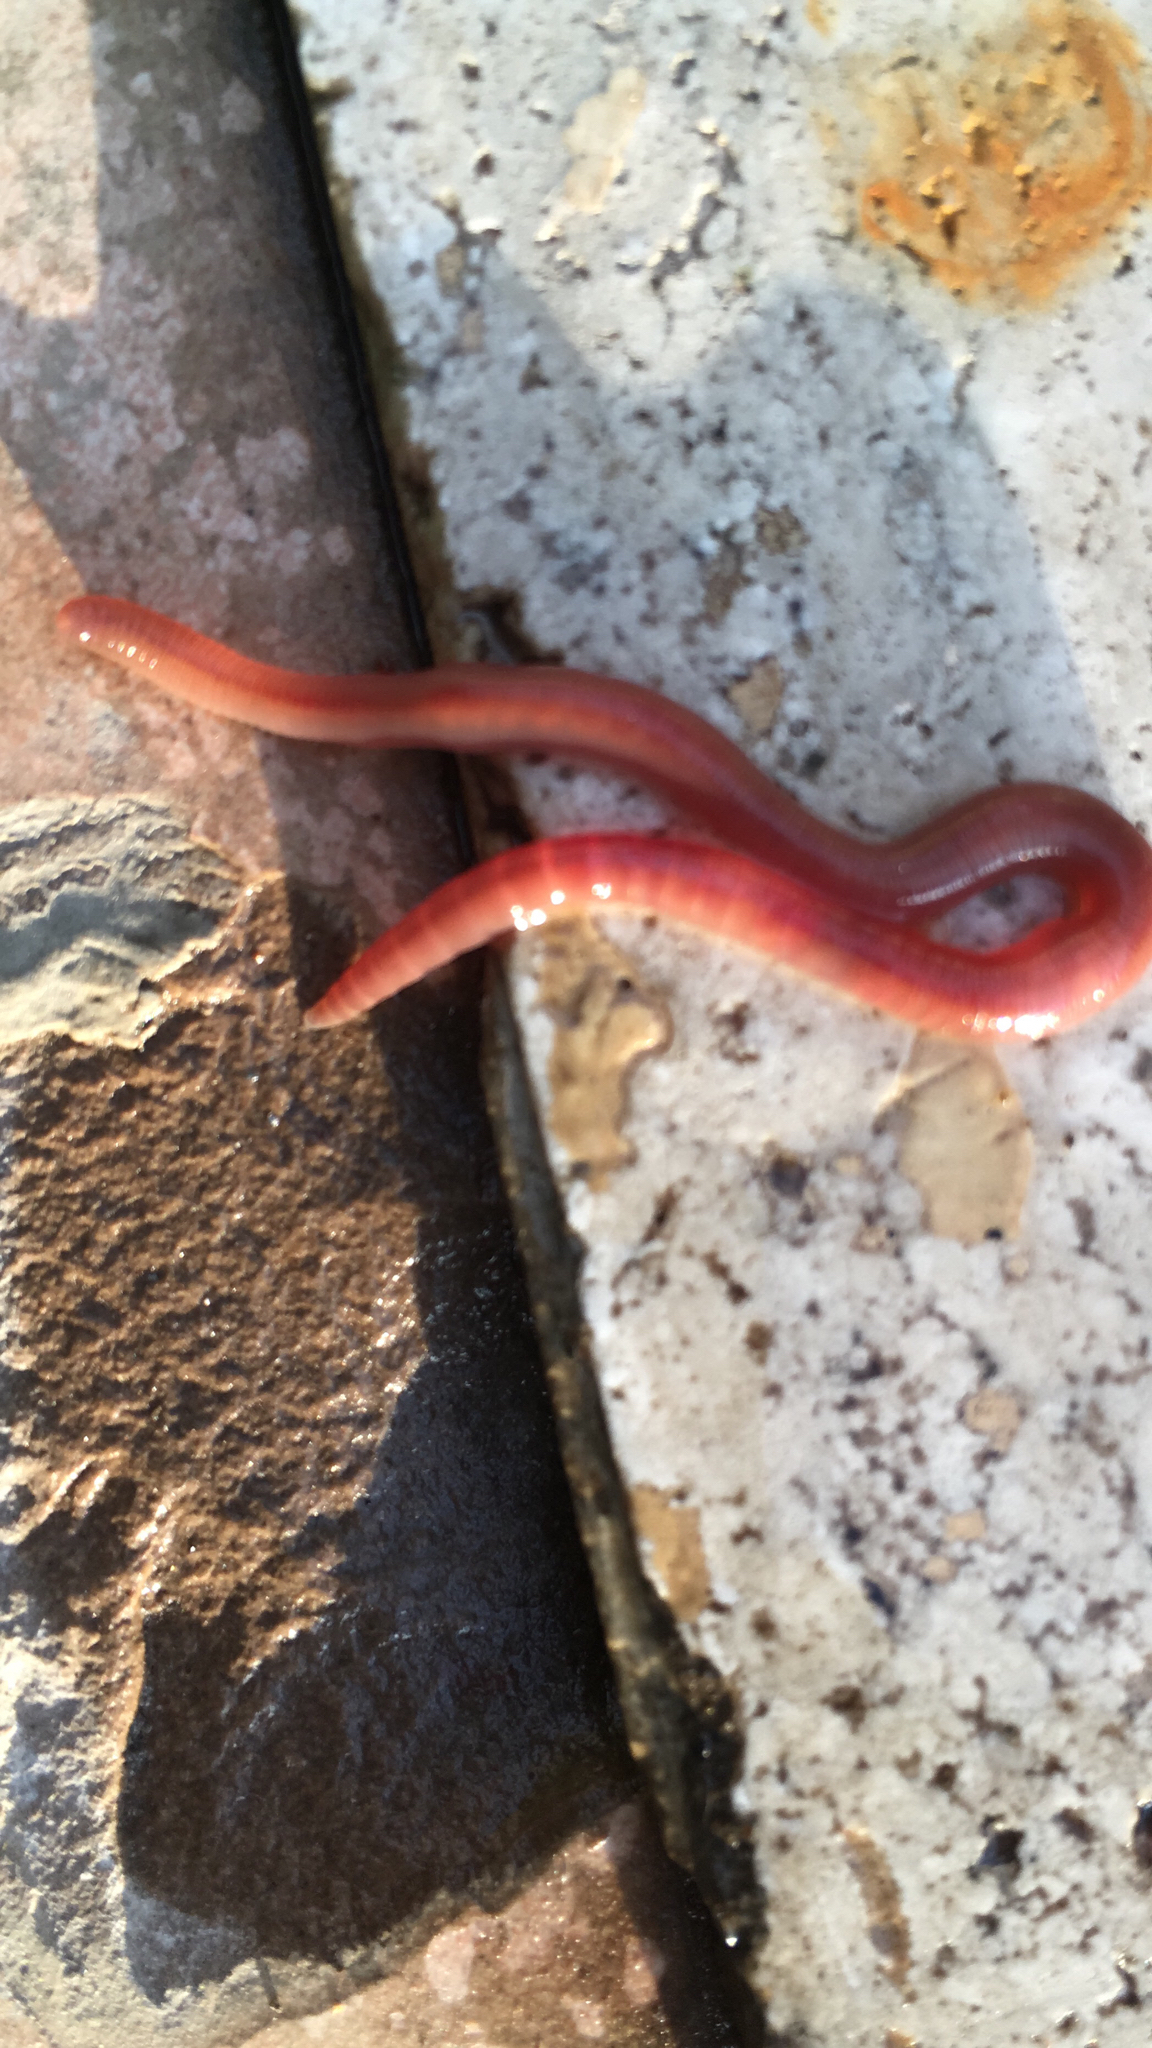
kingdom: Animalia
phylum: Annelida
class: Clitellata
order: Crassiclitellata
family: Lumbricidae
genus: Lumbricus
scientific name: Lumbricus terrestris
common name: Common earthworm
